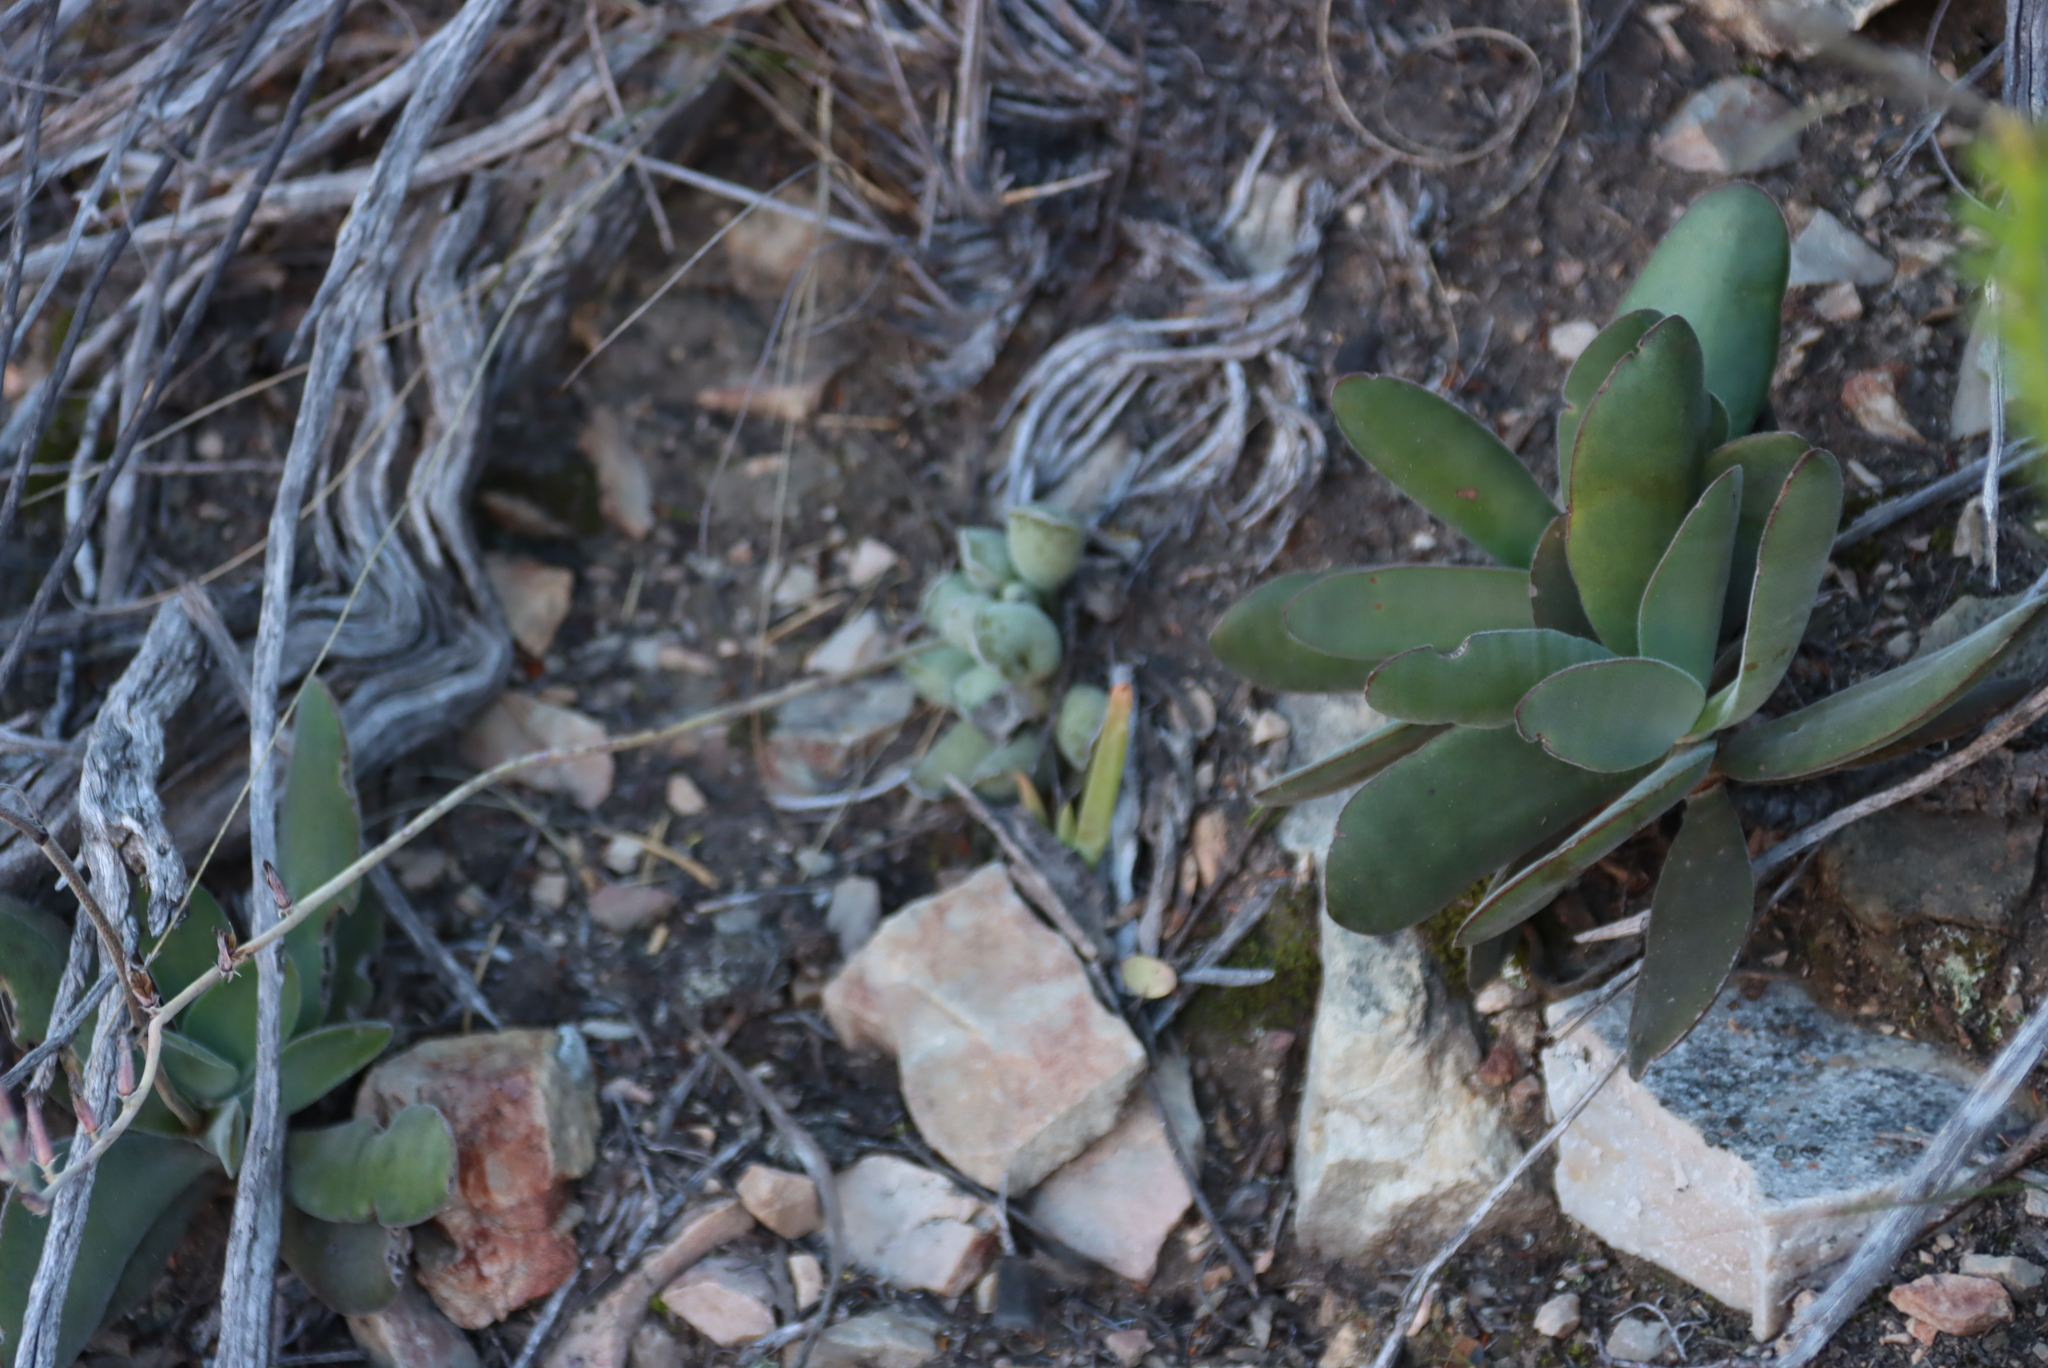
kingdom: Plantae
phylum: Tracheophyta
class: Magnoliopsida
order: Saxifragales
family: Crassulaceae
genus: Crassula
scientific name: Crassula cotyledonis
